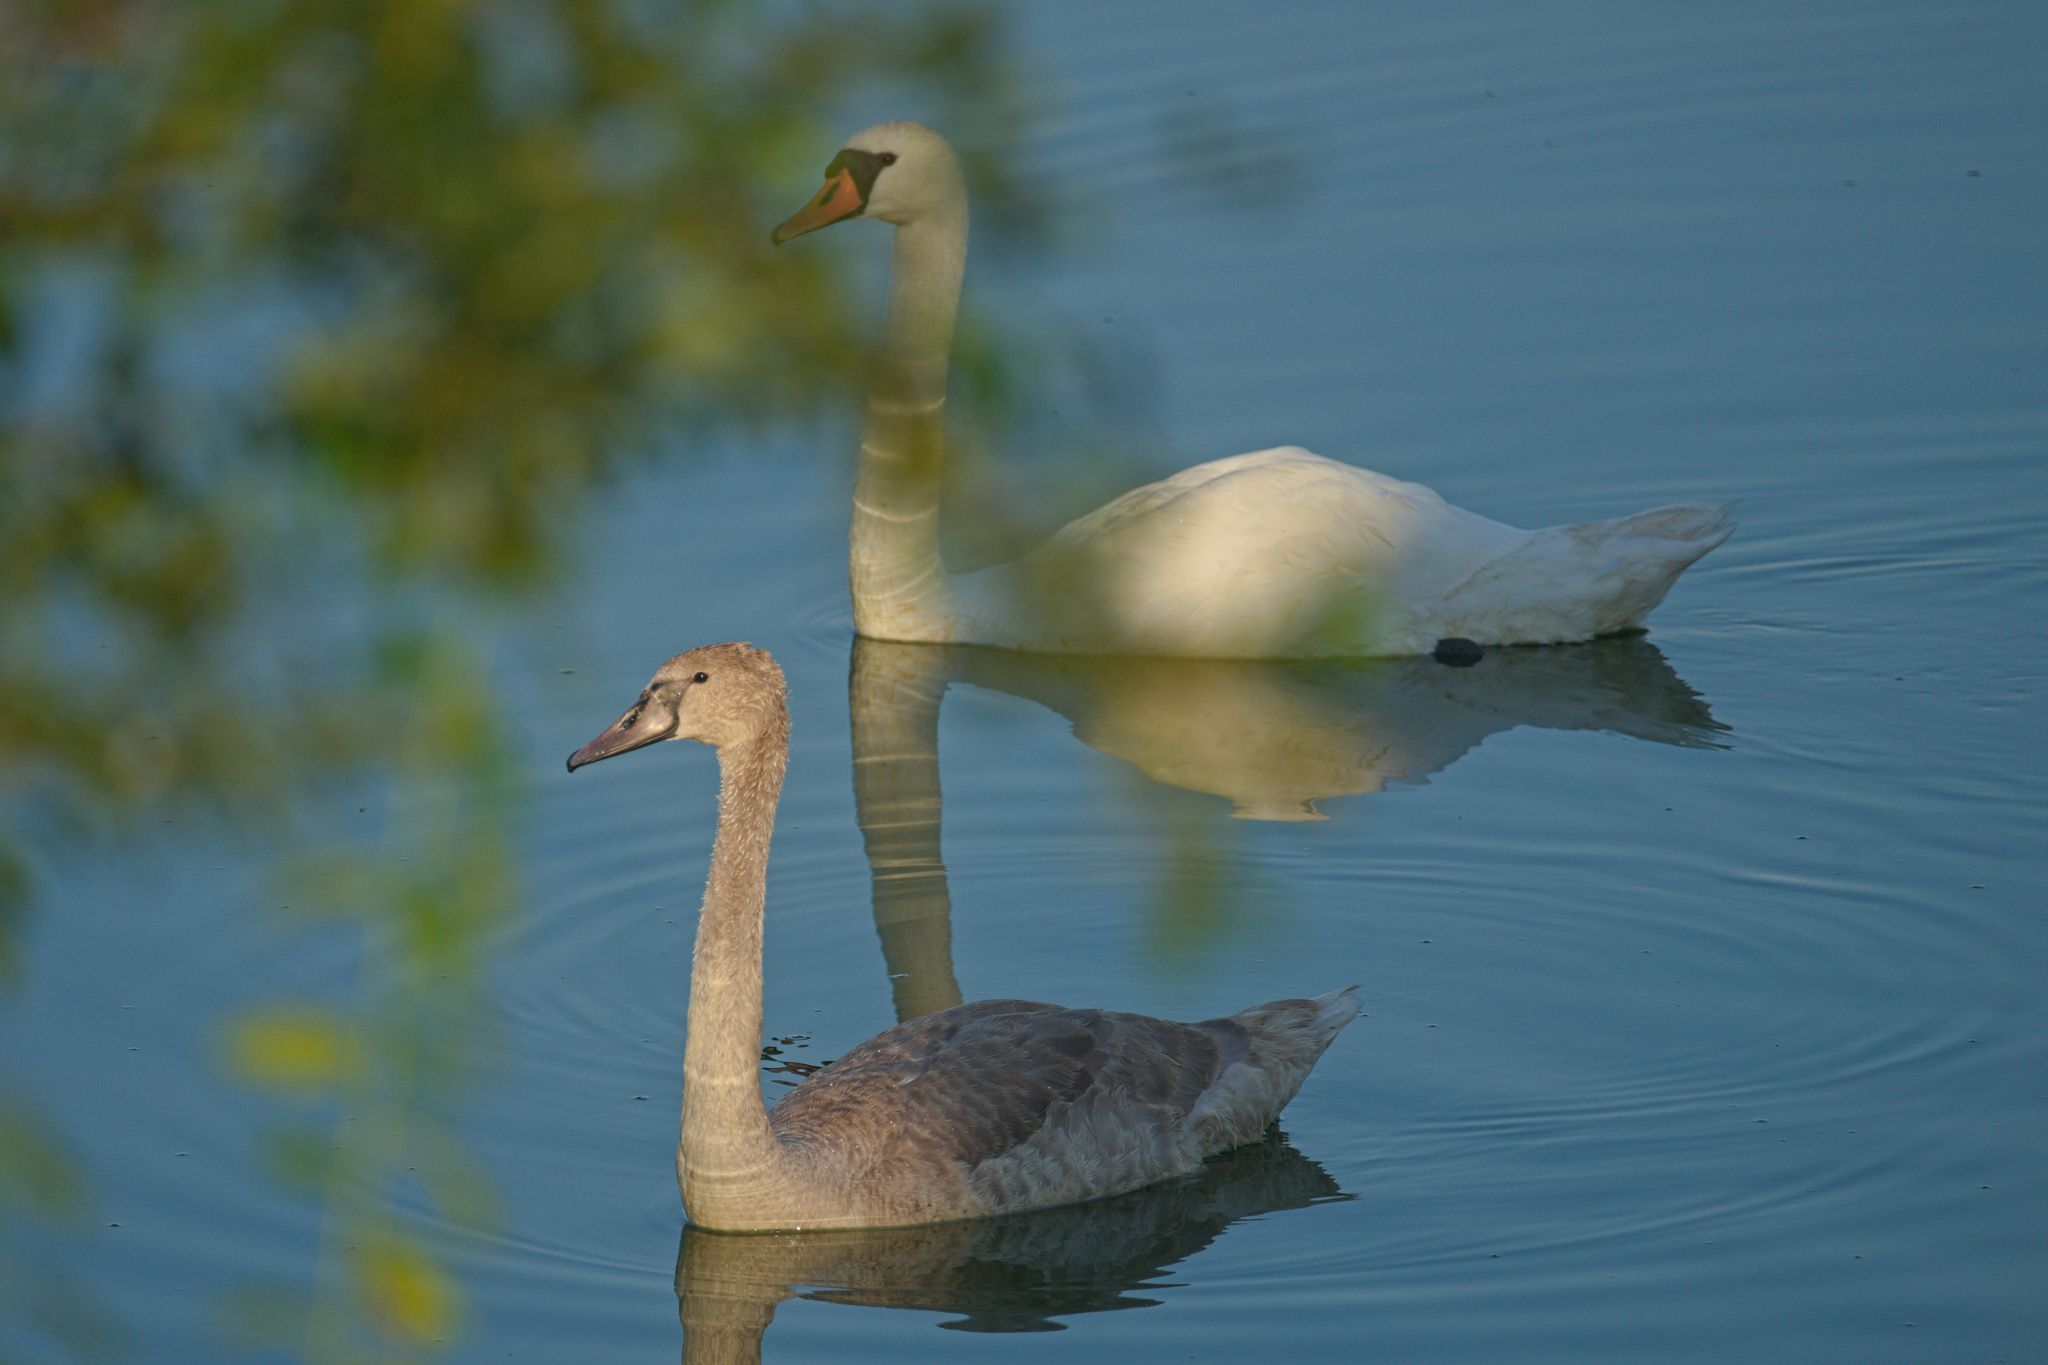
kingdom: Animalia
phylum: Chordata
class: Aves
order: Anseriformes
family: Anatidae
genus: Cygnus
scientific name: Cygnus olor
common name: Mute swan
